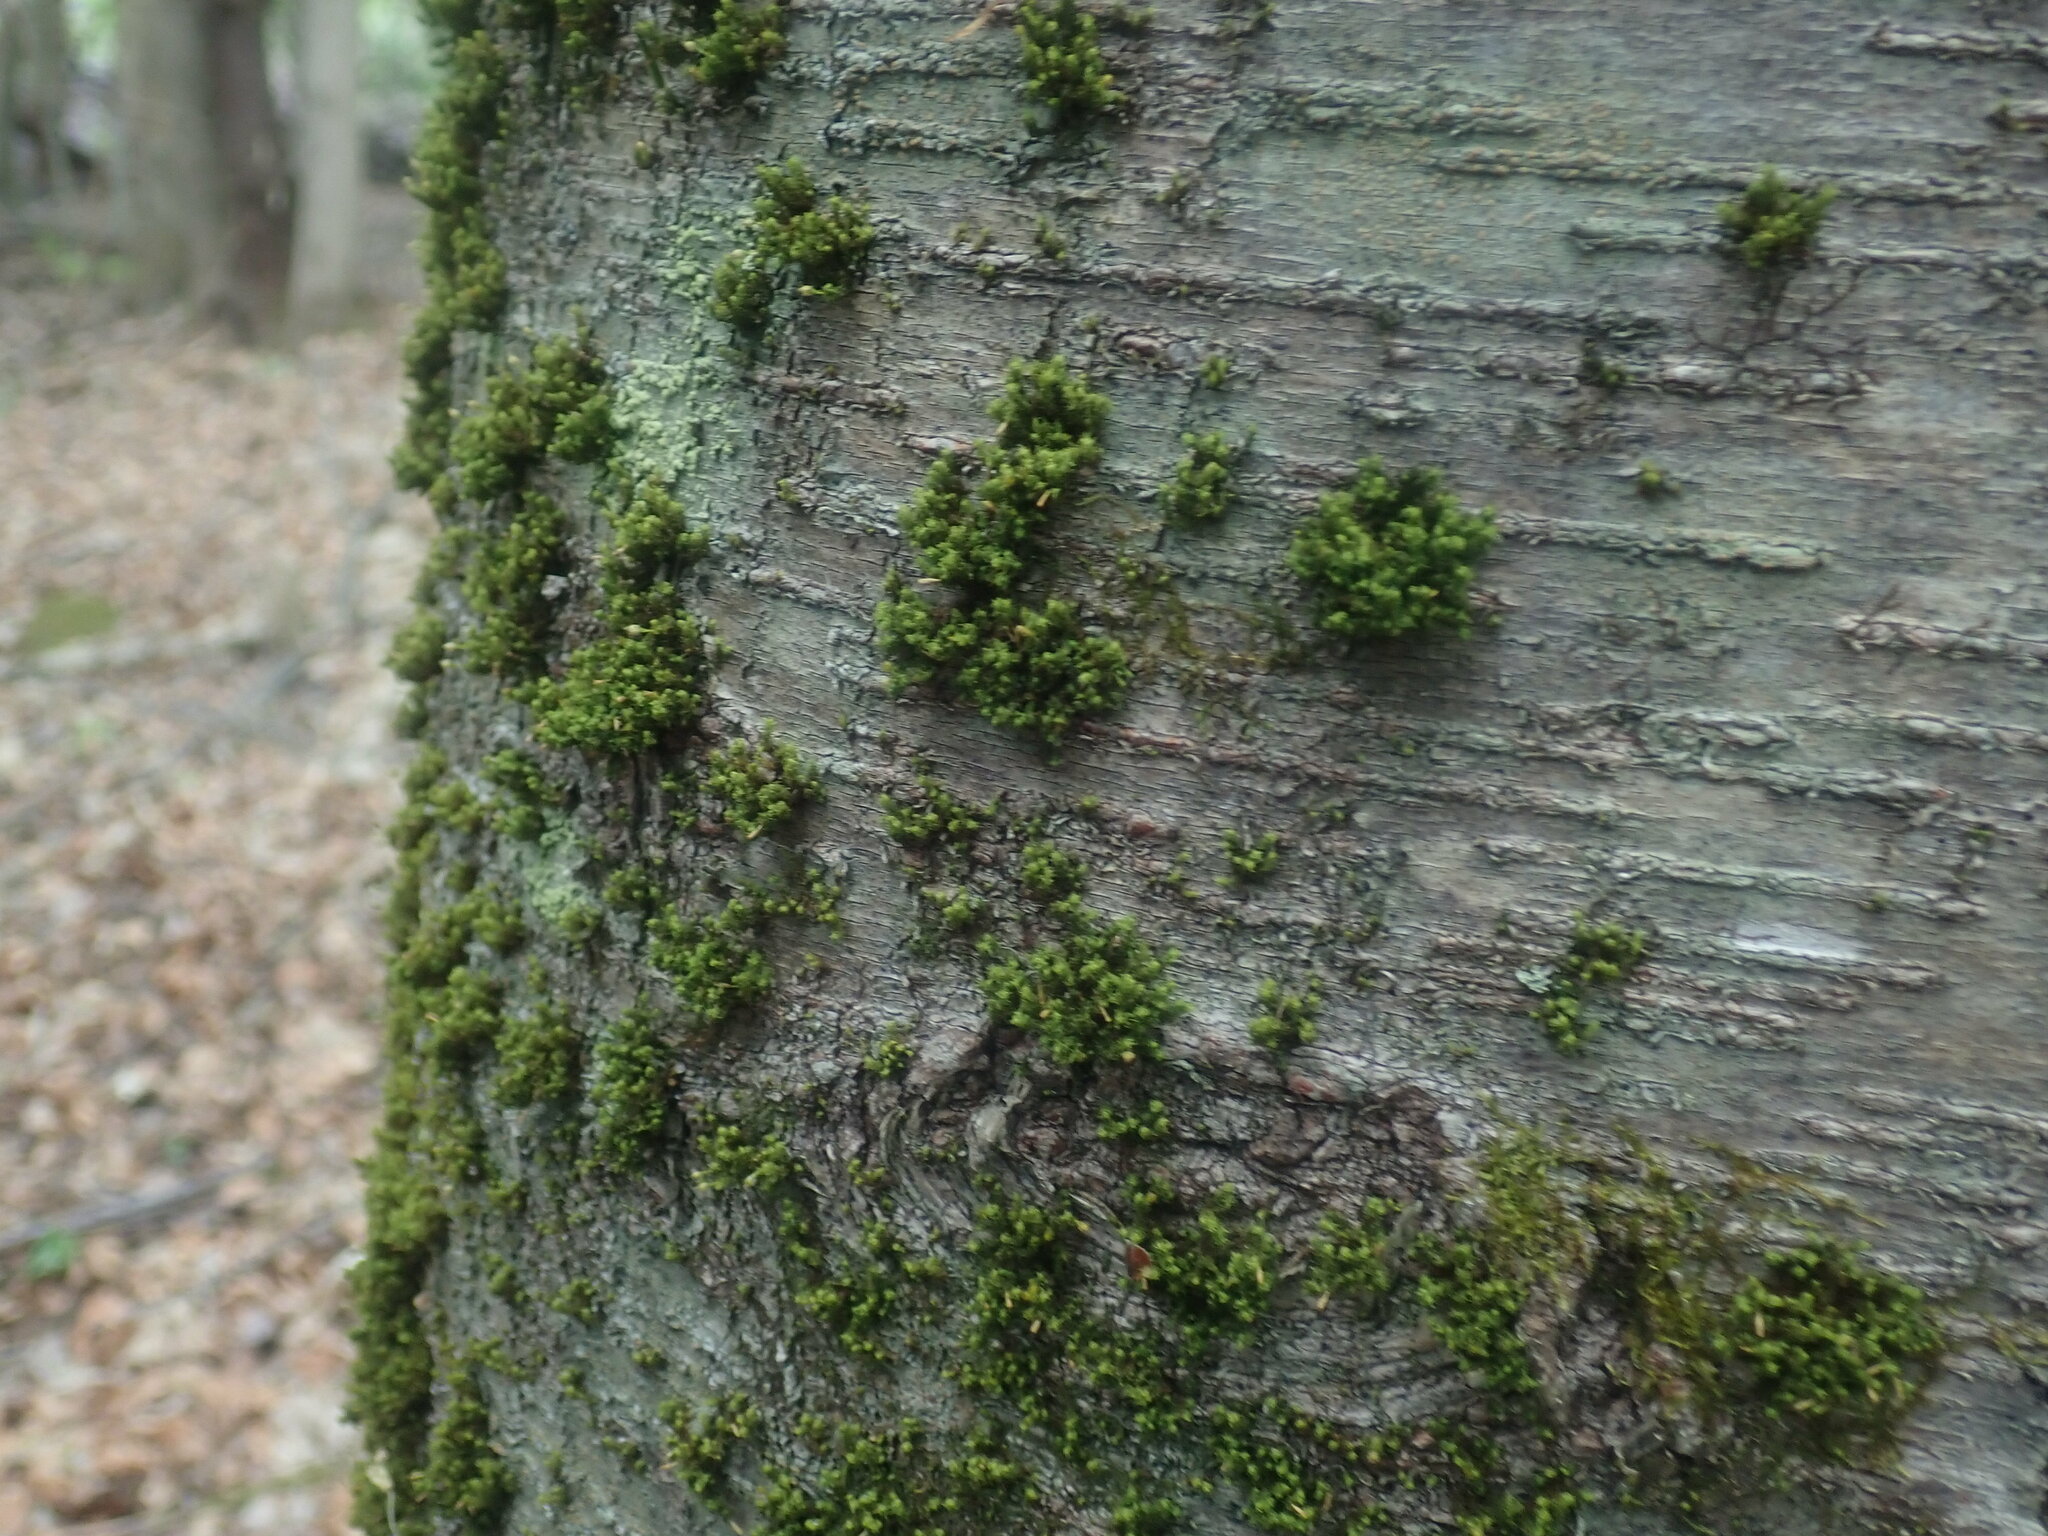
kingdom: Plantae
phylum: Bryophyta
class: Bryopsida
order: Orthotrichales
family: Orthotrichaceae
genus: Ulota
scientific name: Ulota
